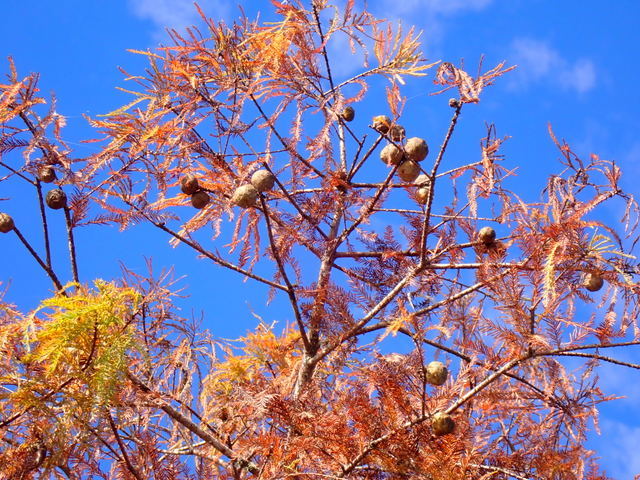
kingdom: Plantae
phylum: Tracheophyta
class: Pinopsida
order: Pinales
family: Cupressaceae
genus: Taxodium
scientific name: Taxodium distichum
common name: Bald cypress
